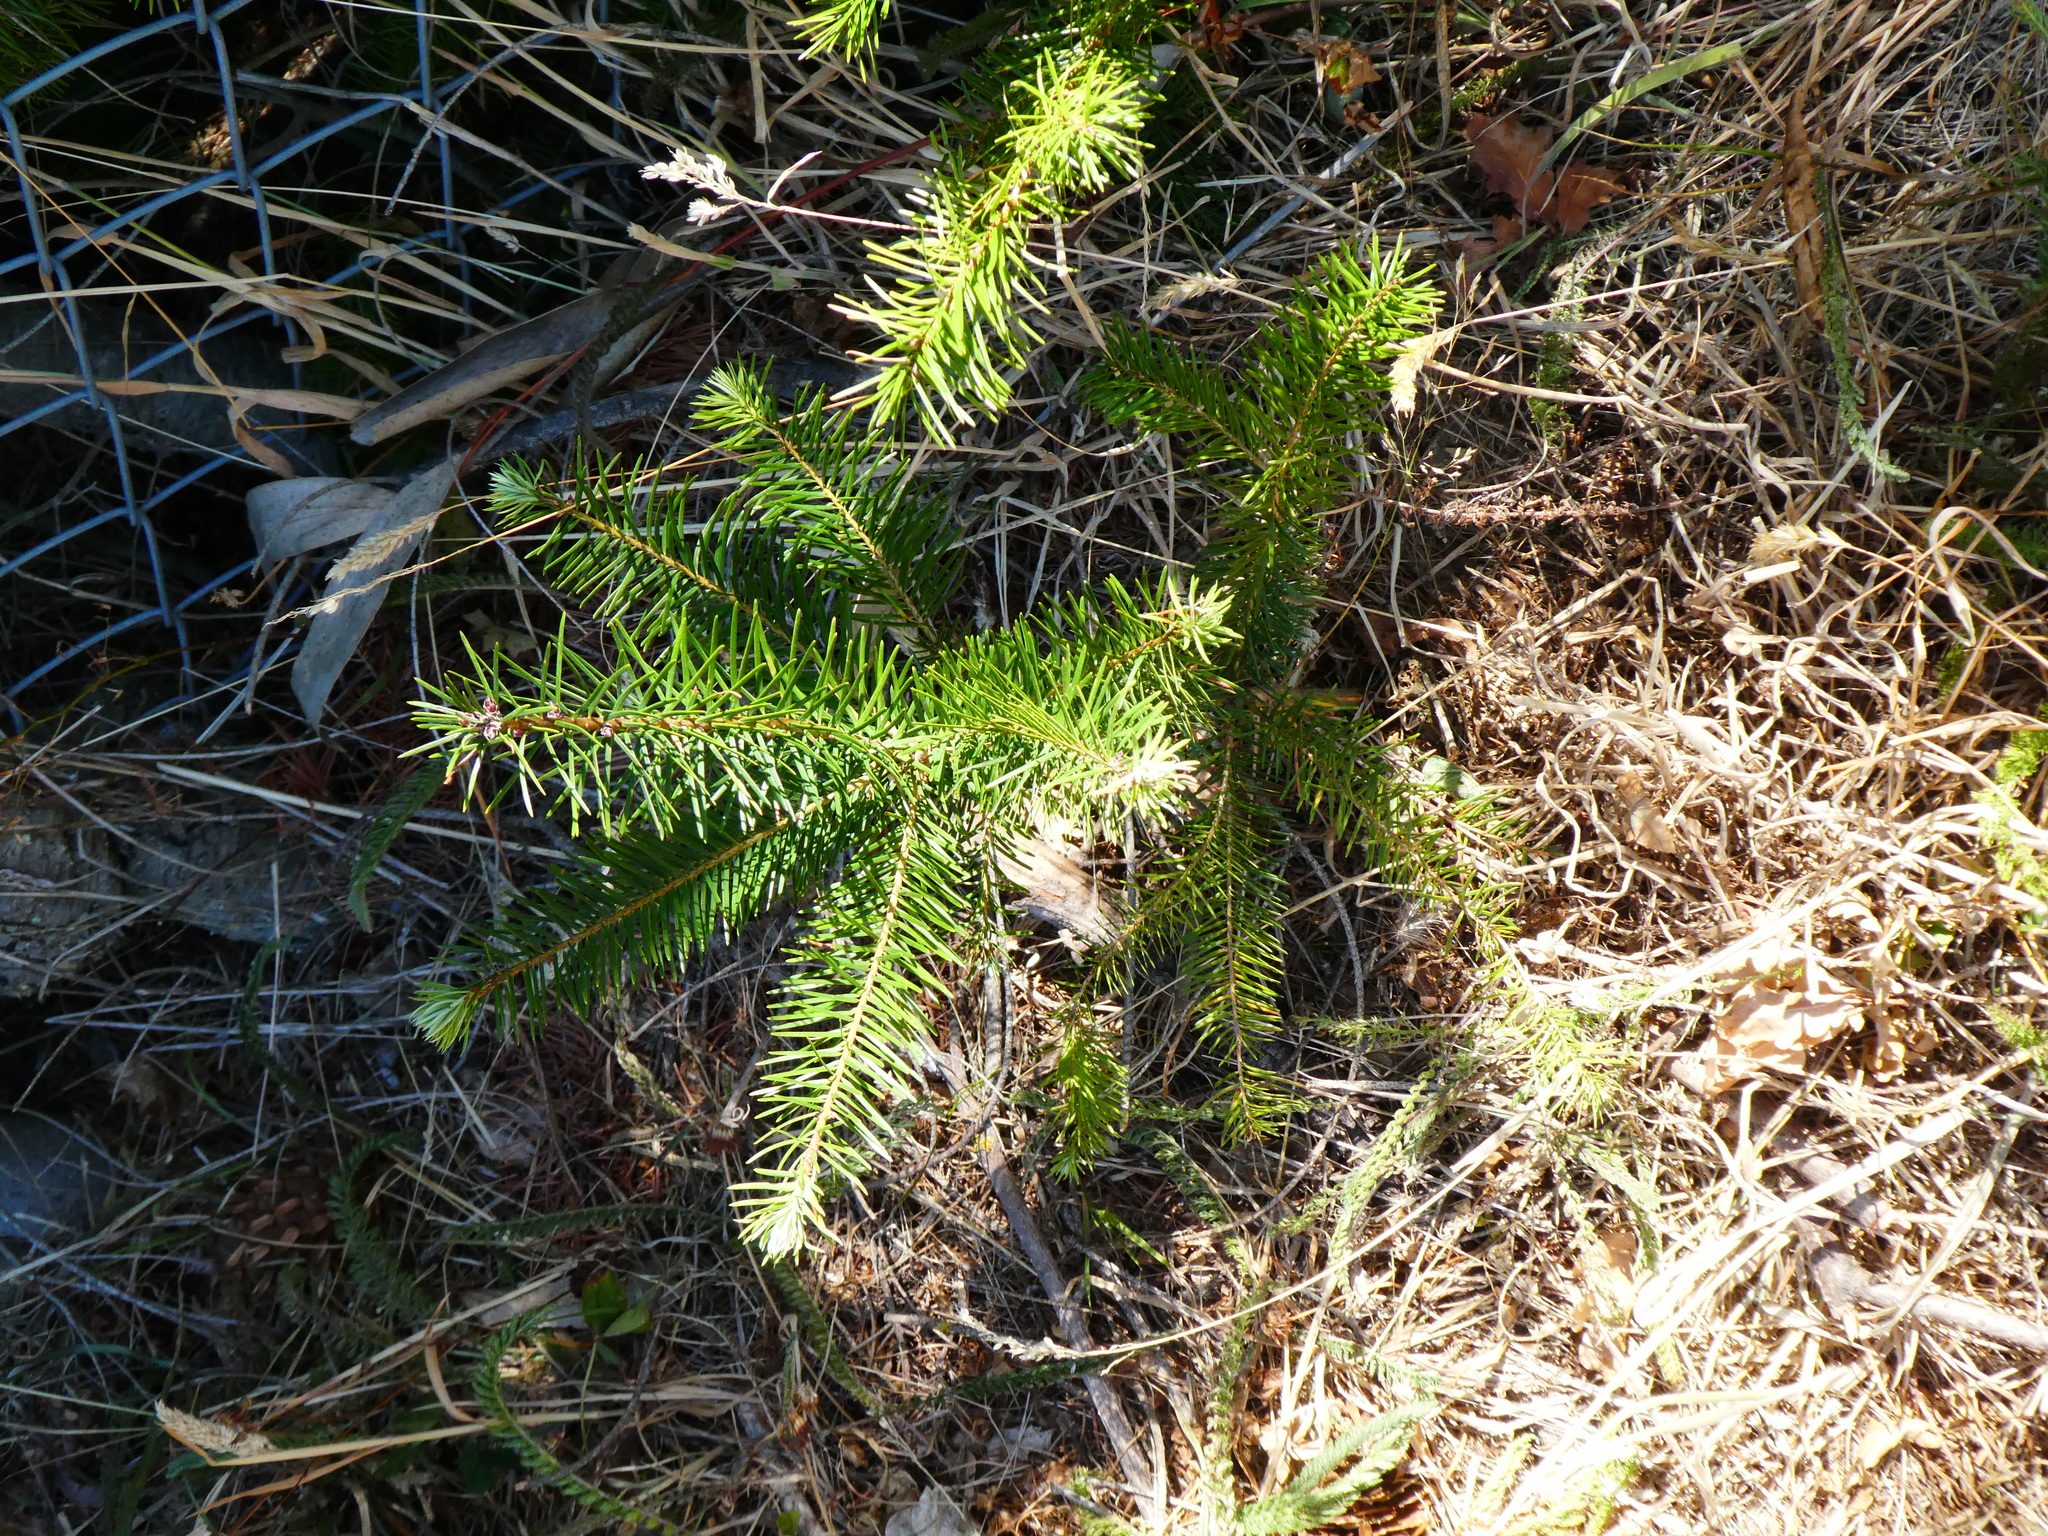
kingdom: Plantae
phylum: Tracheophyta
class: Pinopsida
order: Pinales
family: Pinaceae
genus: Pseudotsuga
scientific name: Pseudotsuga menziesii
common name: Douglas fir
